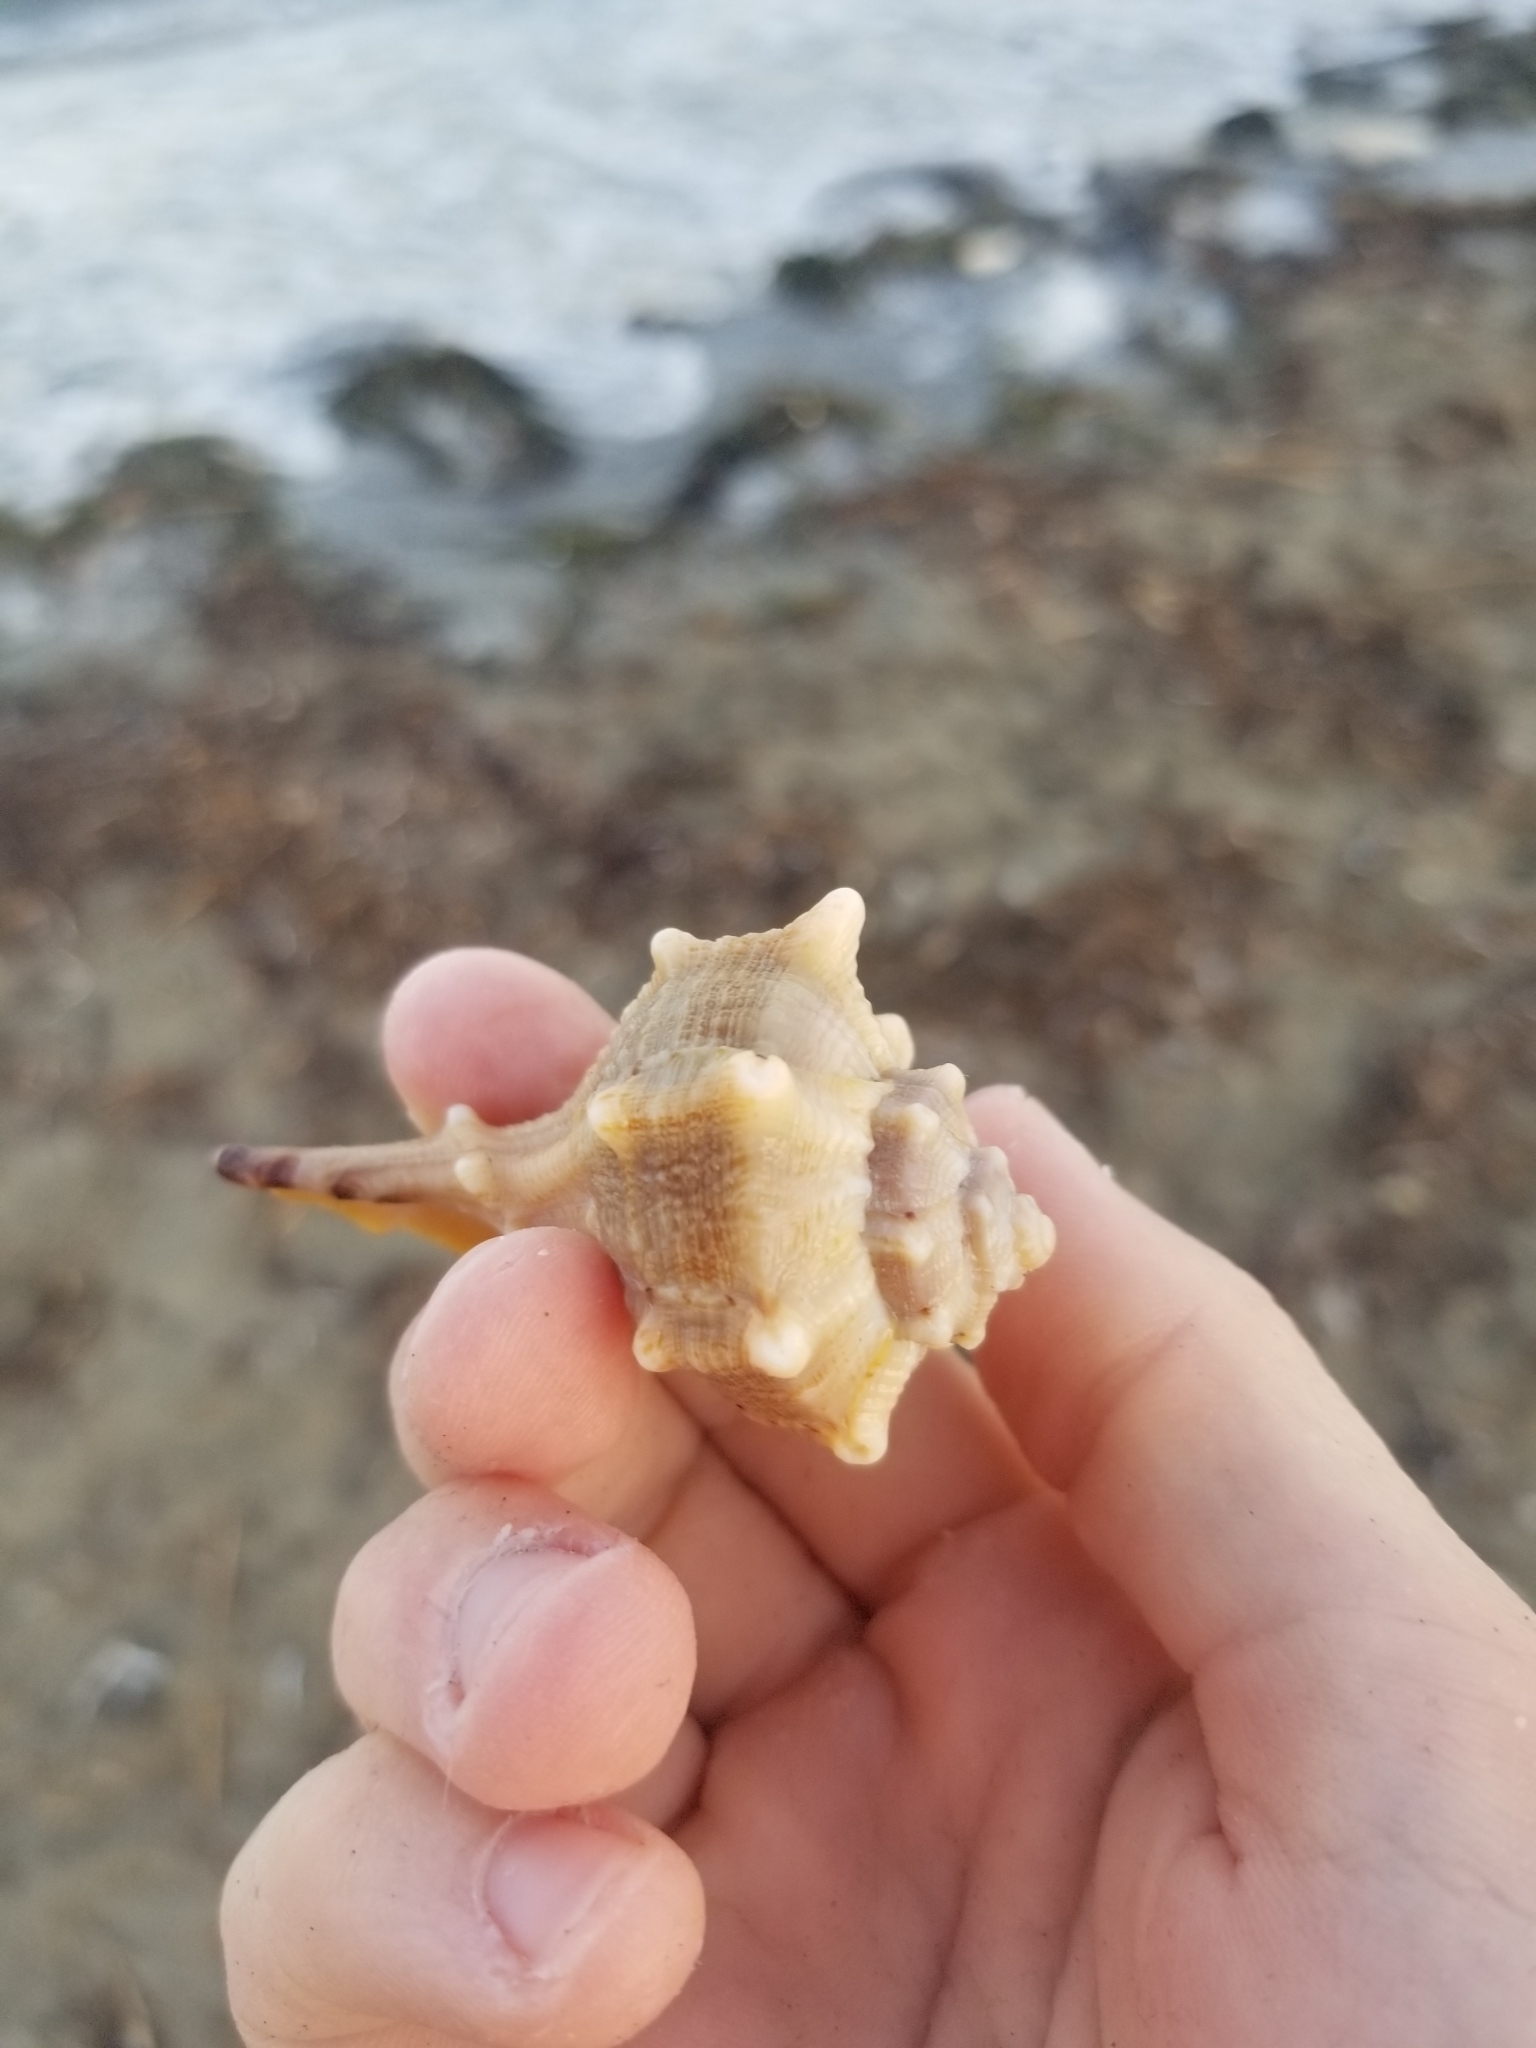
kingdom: Animalia
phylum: Mollusca
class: Gastropoda
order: Neogastropoda
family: Muricidae
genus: Bolinus
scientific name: Bolinus brandaris
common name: Dye murex
